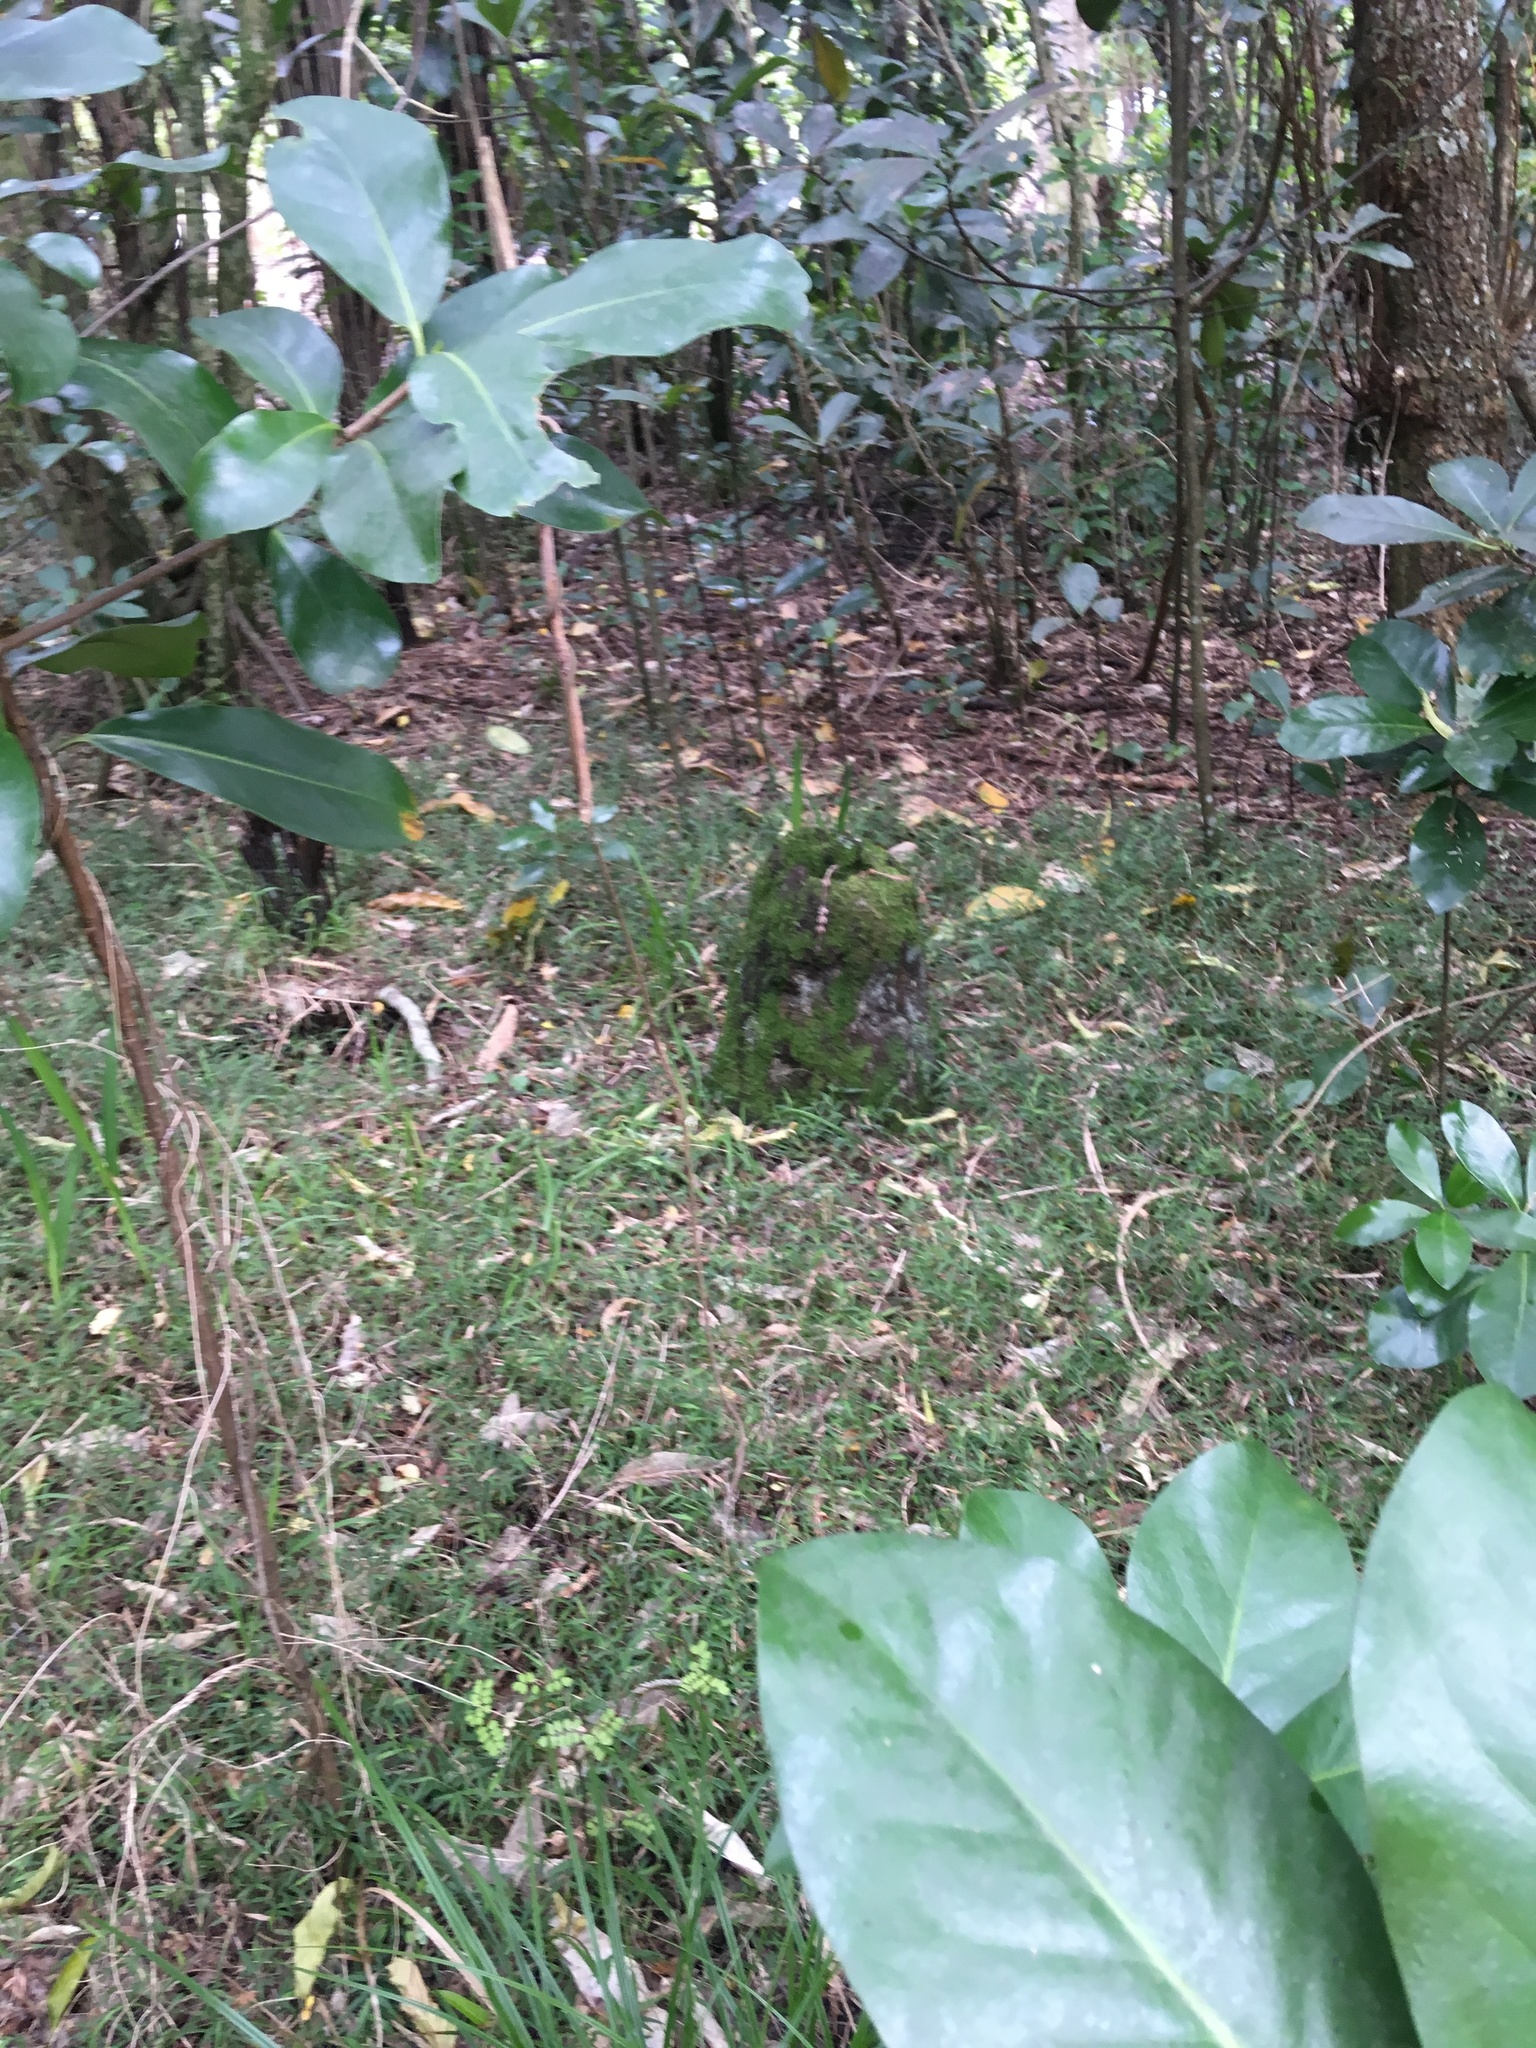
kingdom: Plantae
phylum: Tracheophyta
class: Magnoliopsida
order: Cucurbitales
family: Corynocarpaceae
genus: Corynocarpus
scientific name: Corynocarpus laevigatus
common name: New zealand laurel
